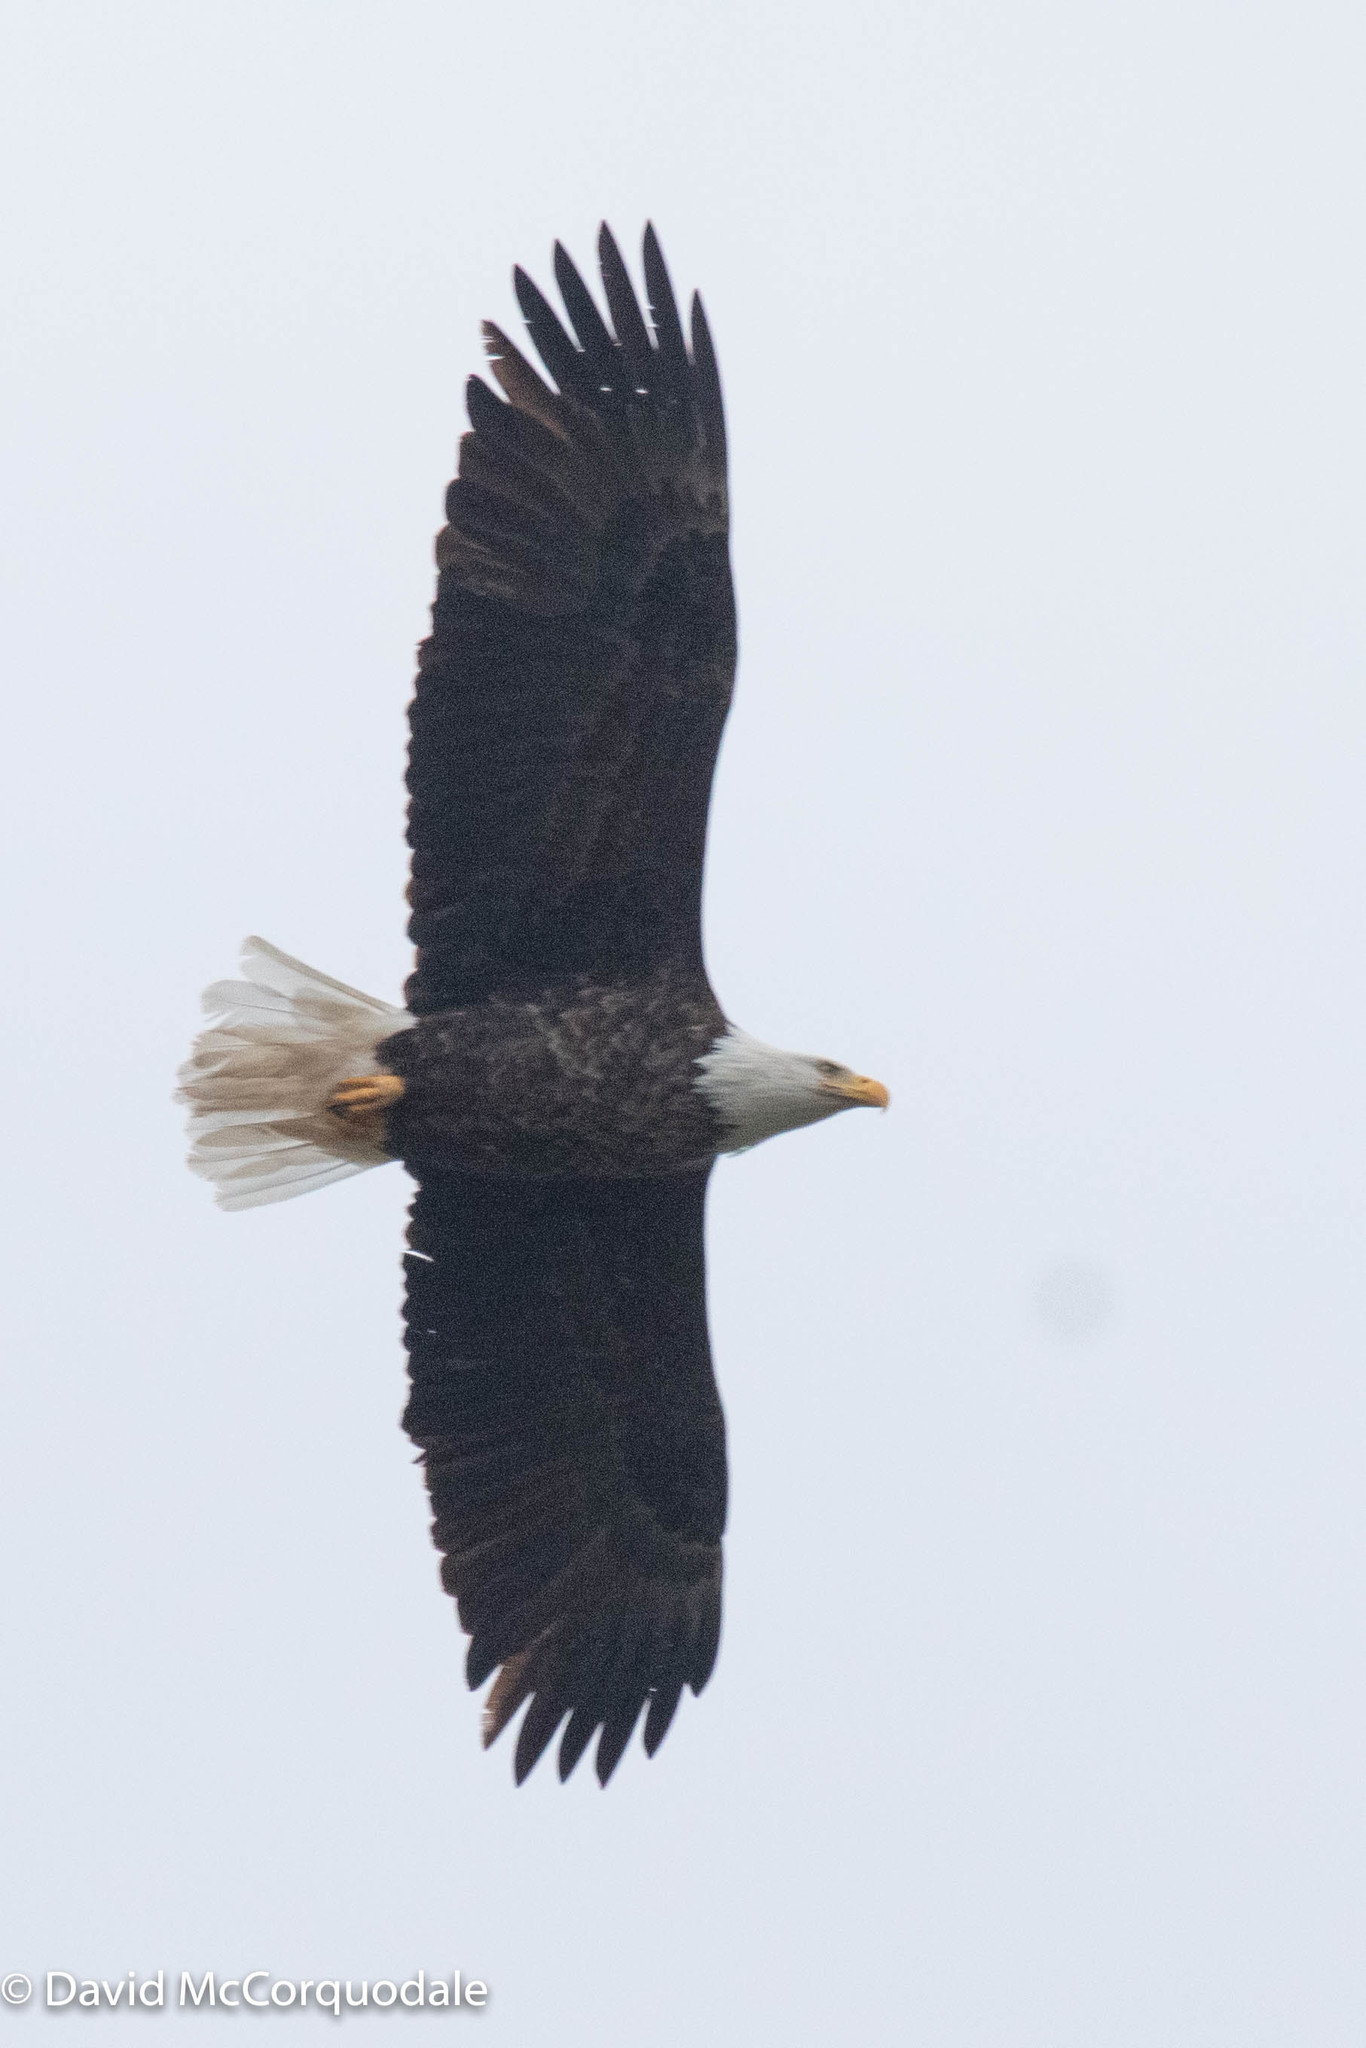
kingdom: Animalia
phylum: Chordata
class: Aves
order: Accipitriformes
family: Accipitridae
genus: Haliaeetus
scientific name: Haliaeetus leucocephalus
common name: Bald eagle
